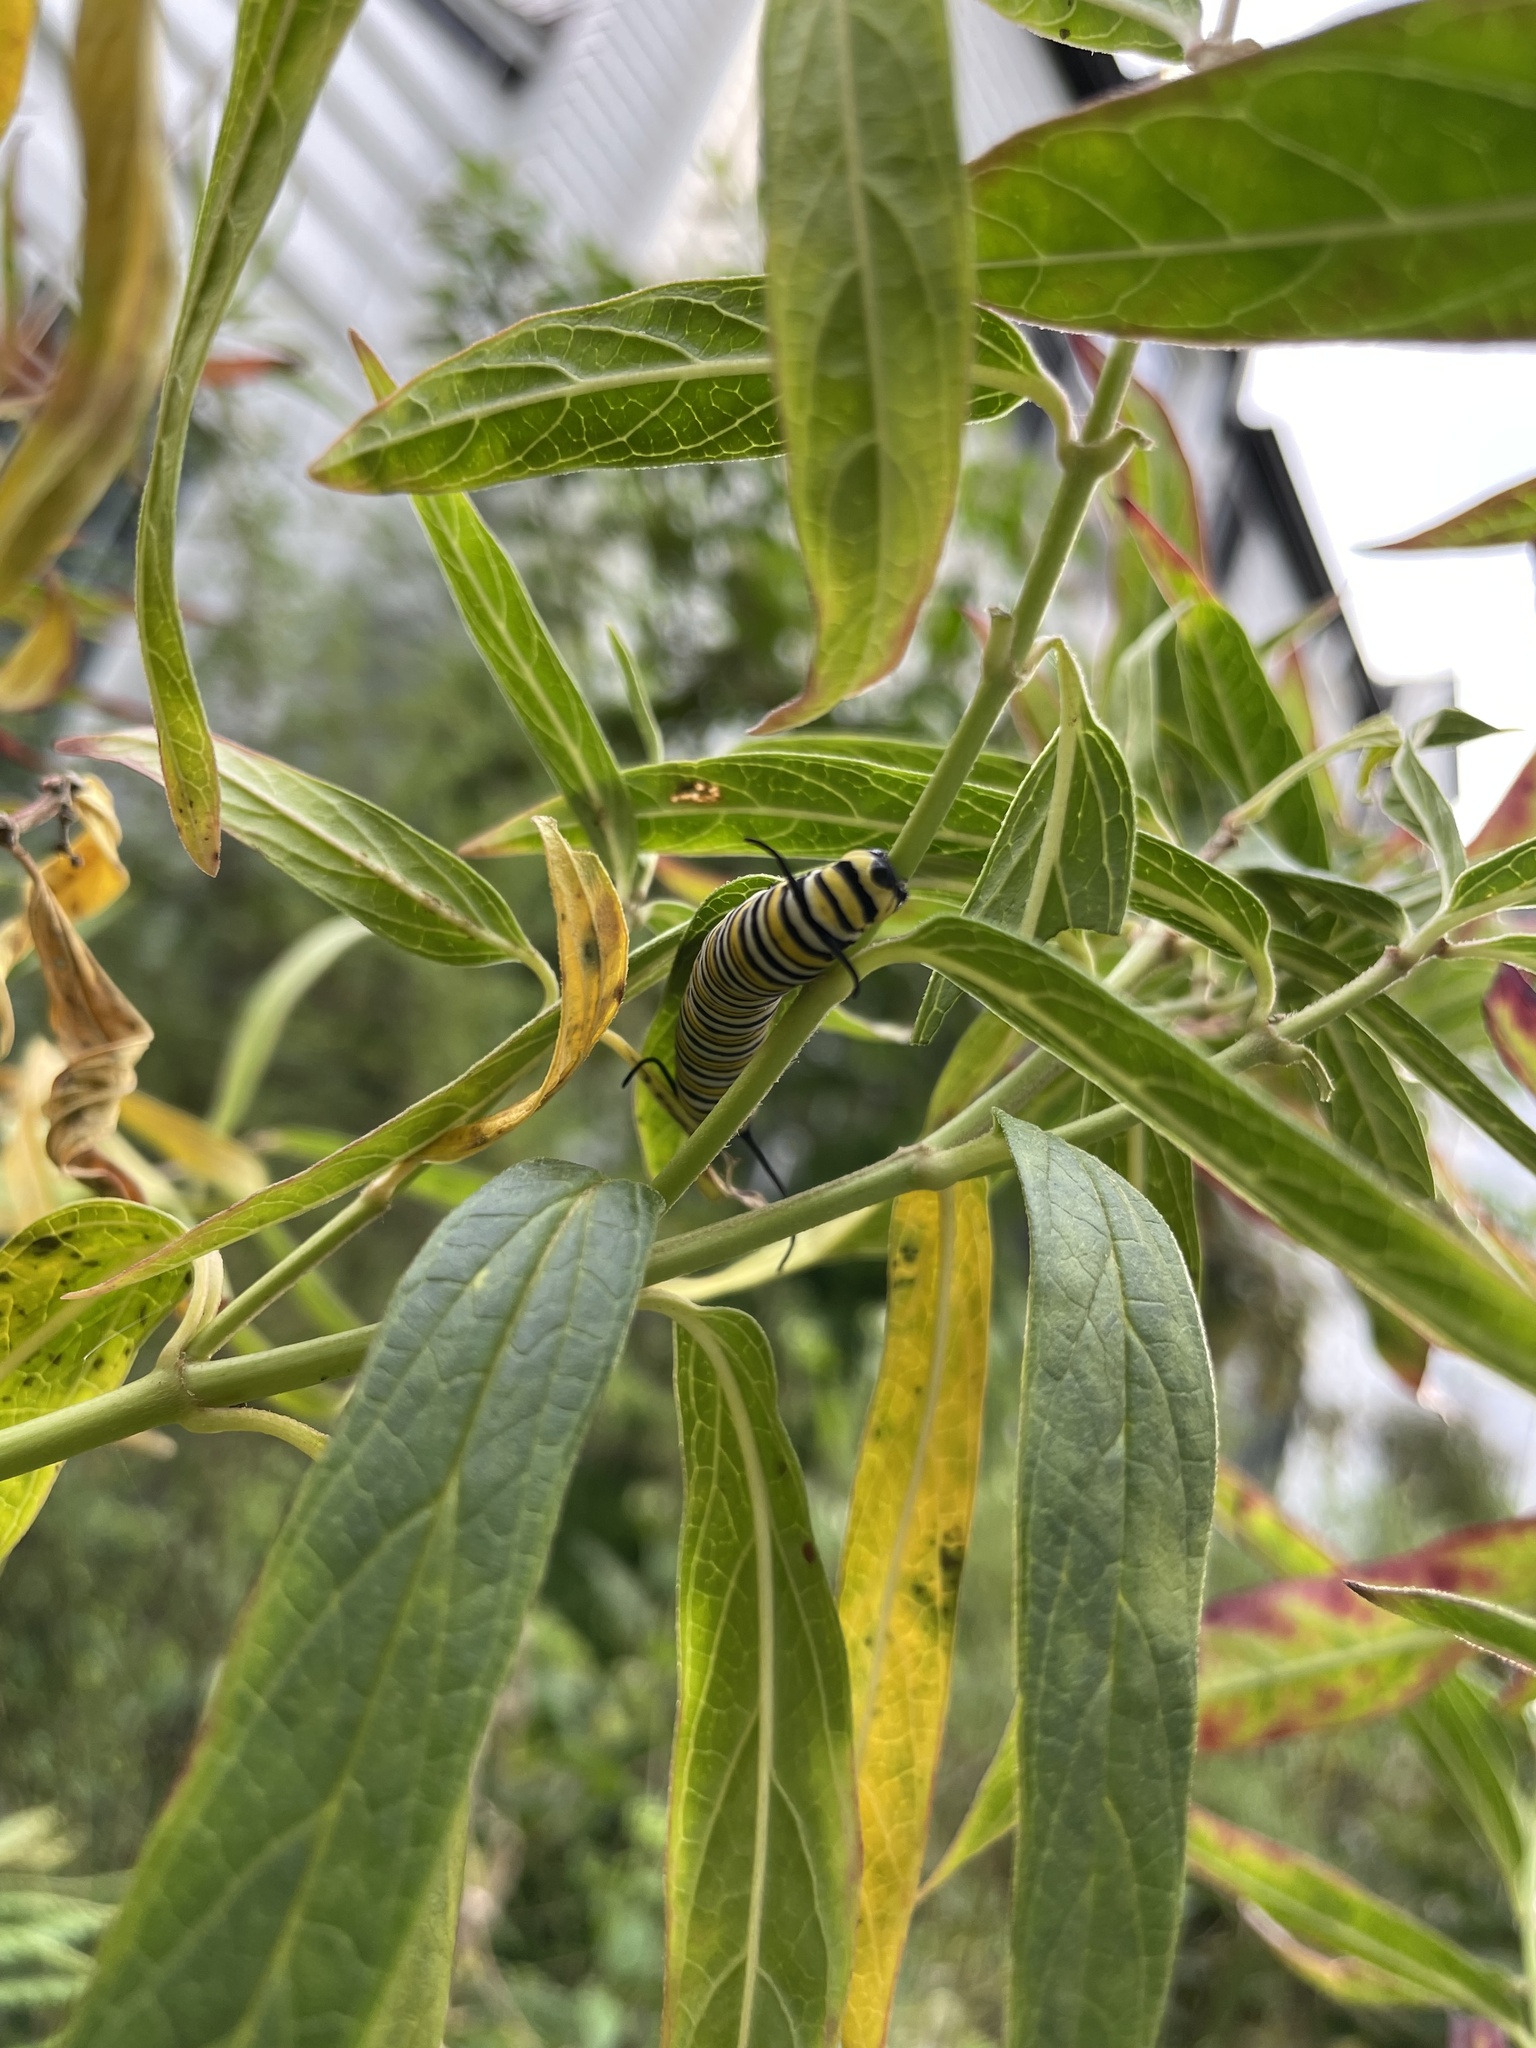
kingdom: Animalia
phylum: Arthropoda
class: Insecta
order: Lepidoptera
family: Nymphalidae
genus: Danaus
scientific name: Danaus plexippus
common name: Monarch
